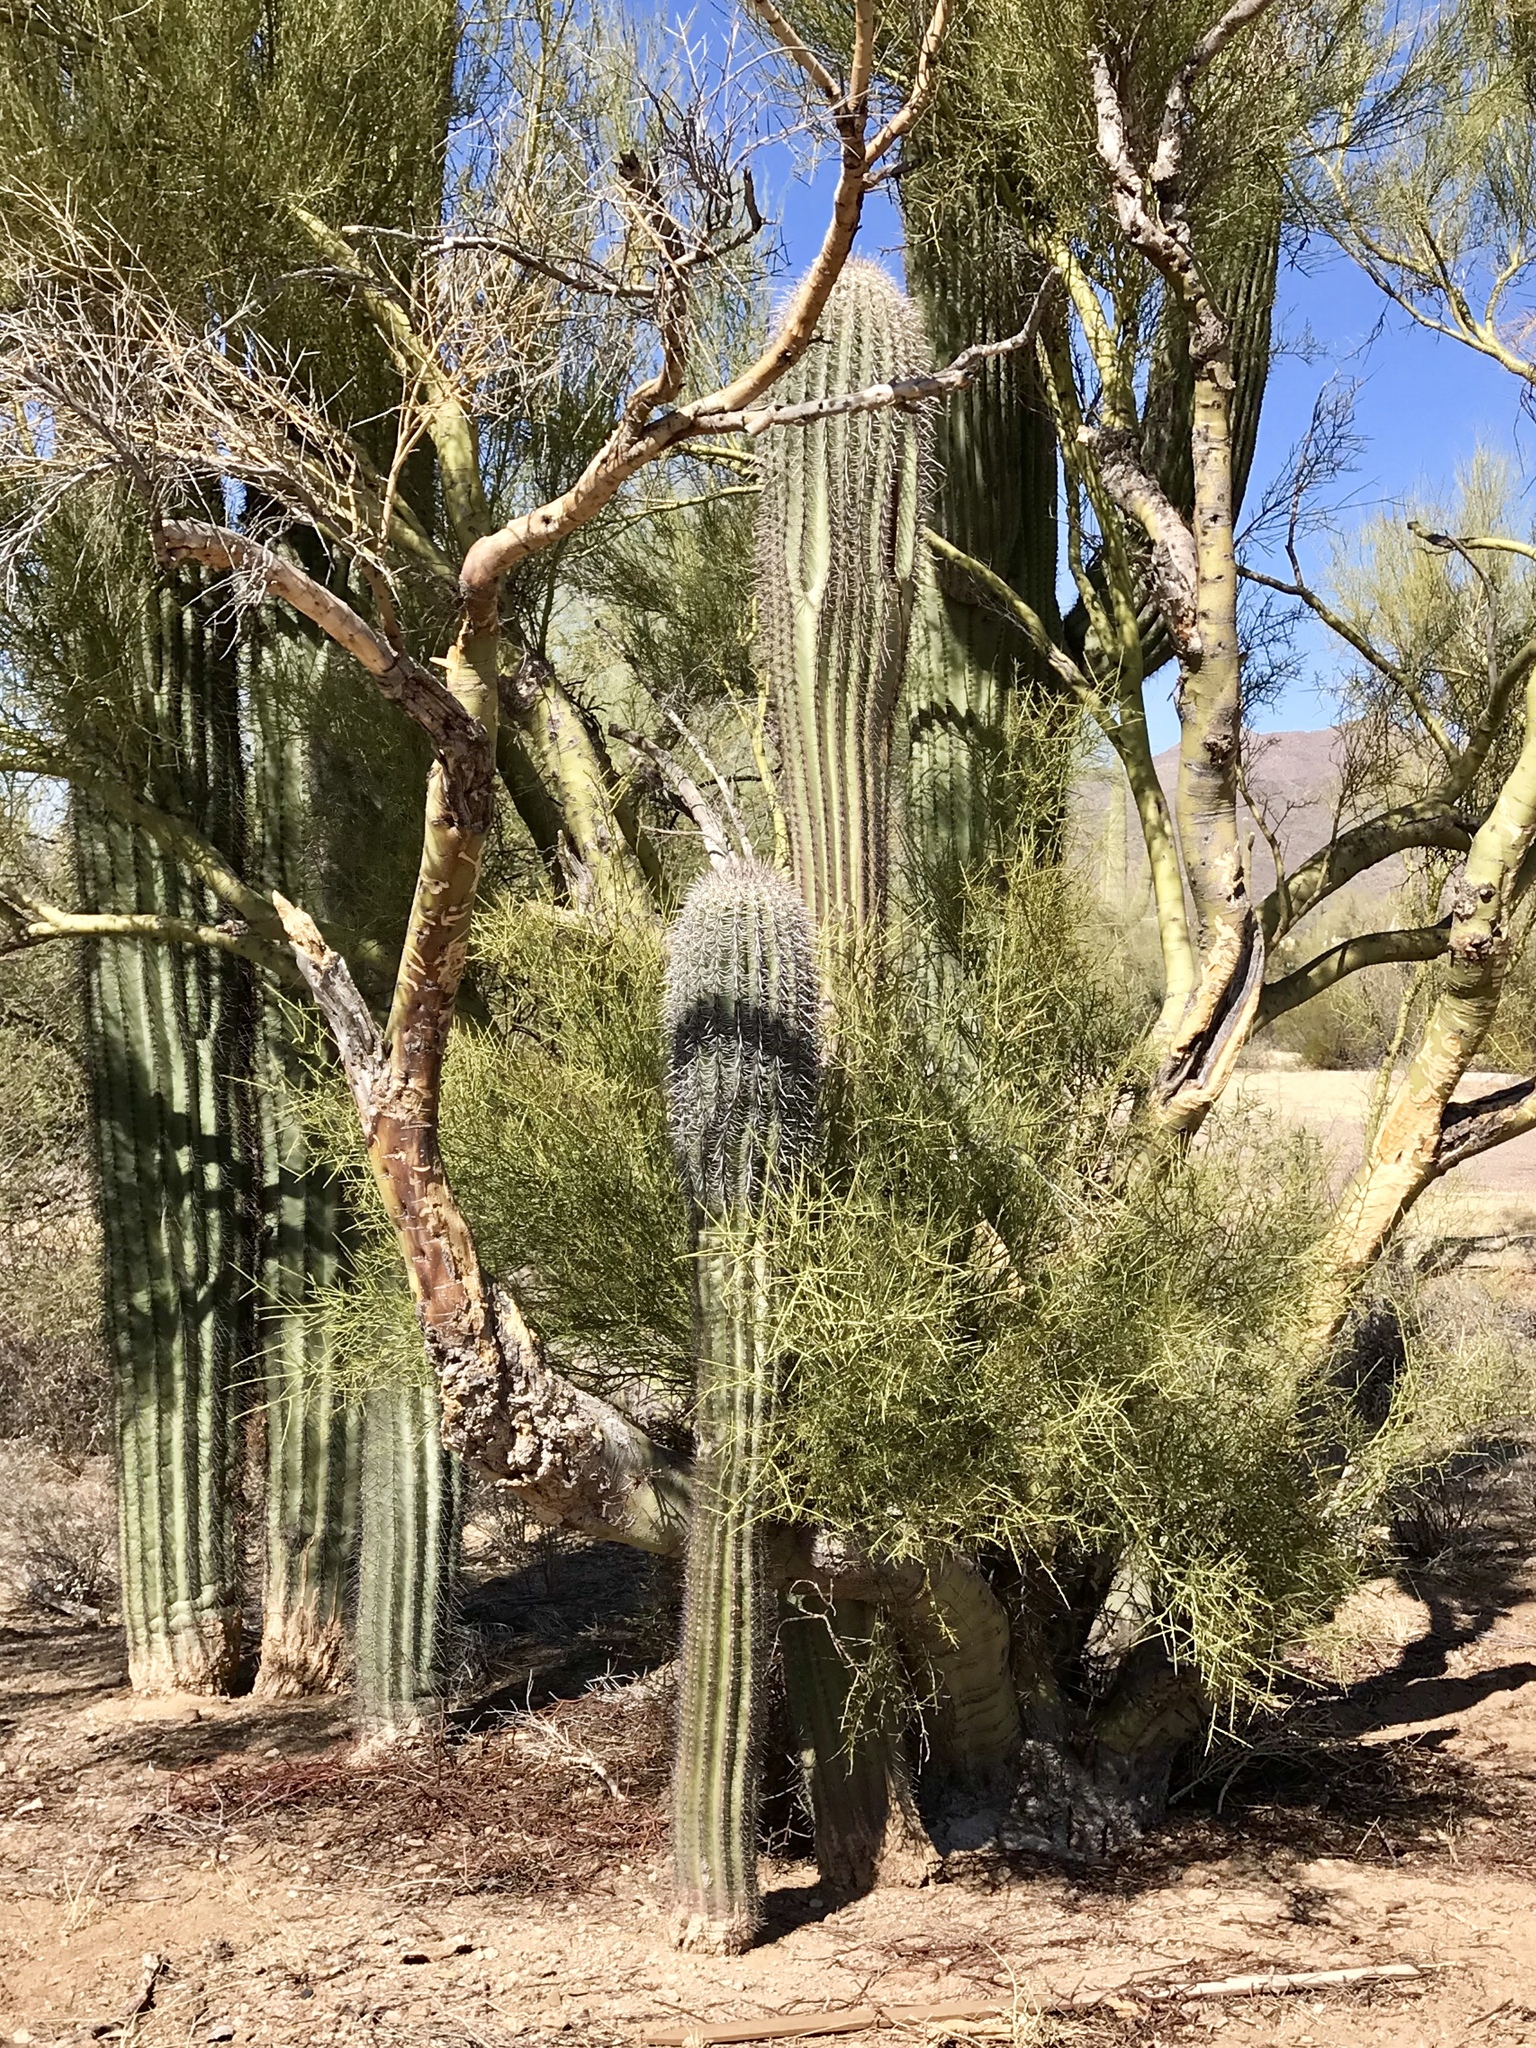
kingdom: Plantae
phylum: Tracheophyta
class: Magnoliopsida
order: Caryophyllales
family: Cactaceae
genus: Carnegiea
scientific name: Carnegiea gigantea
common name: Saguaro
